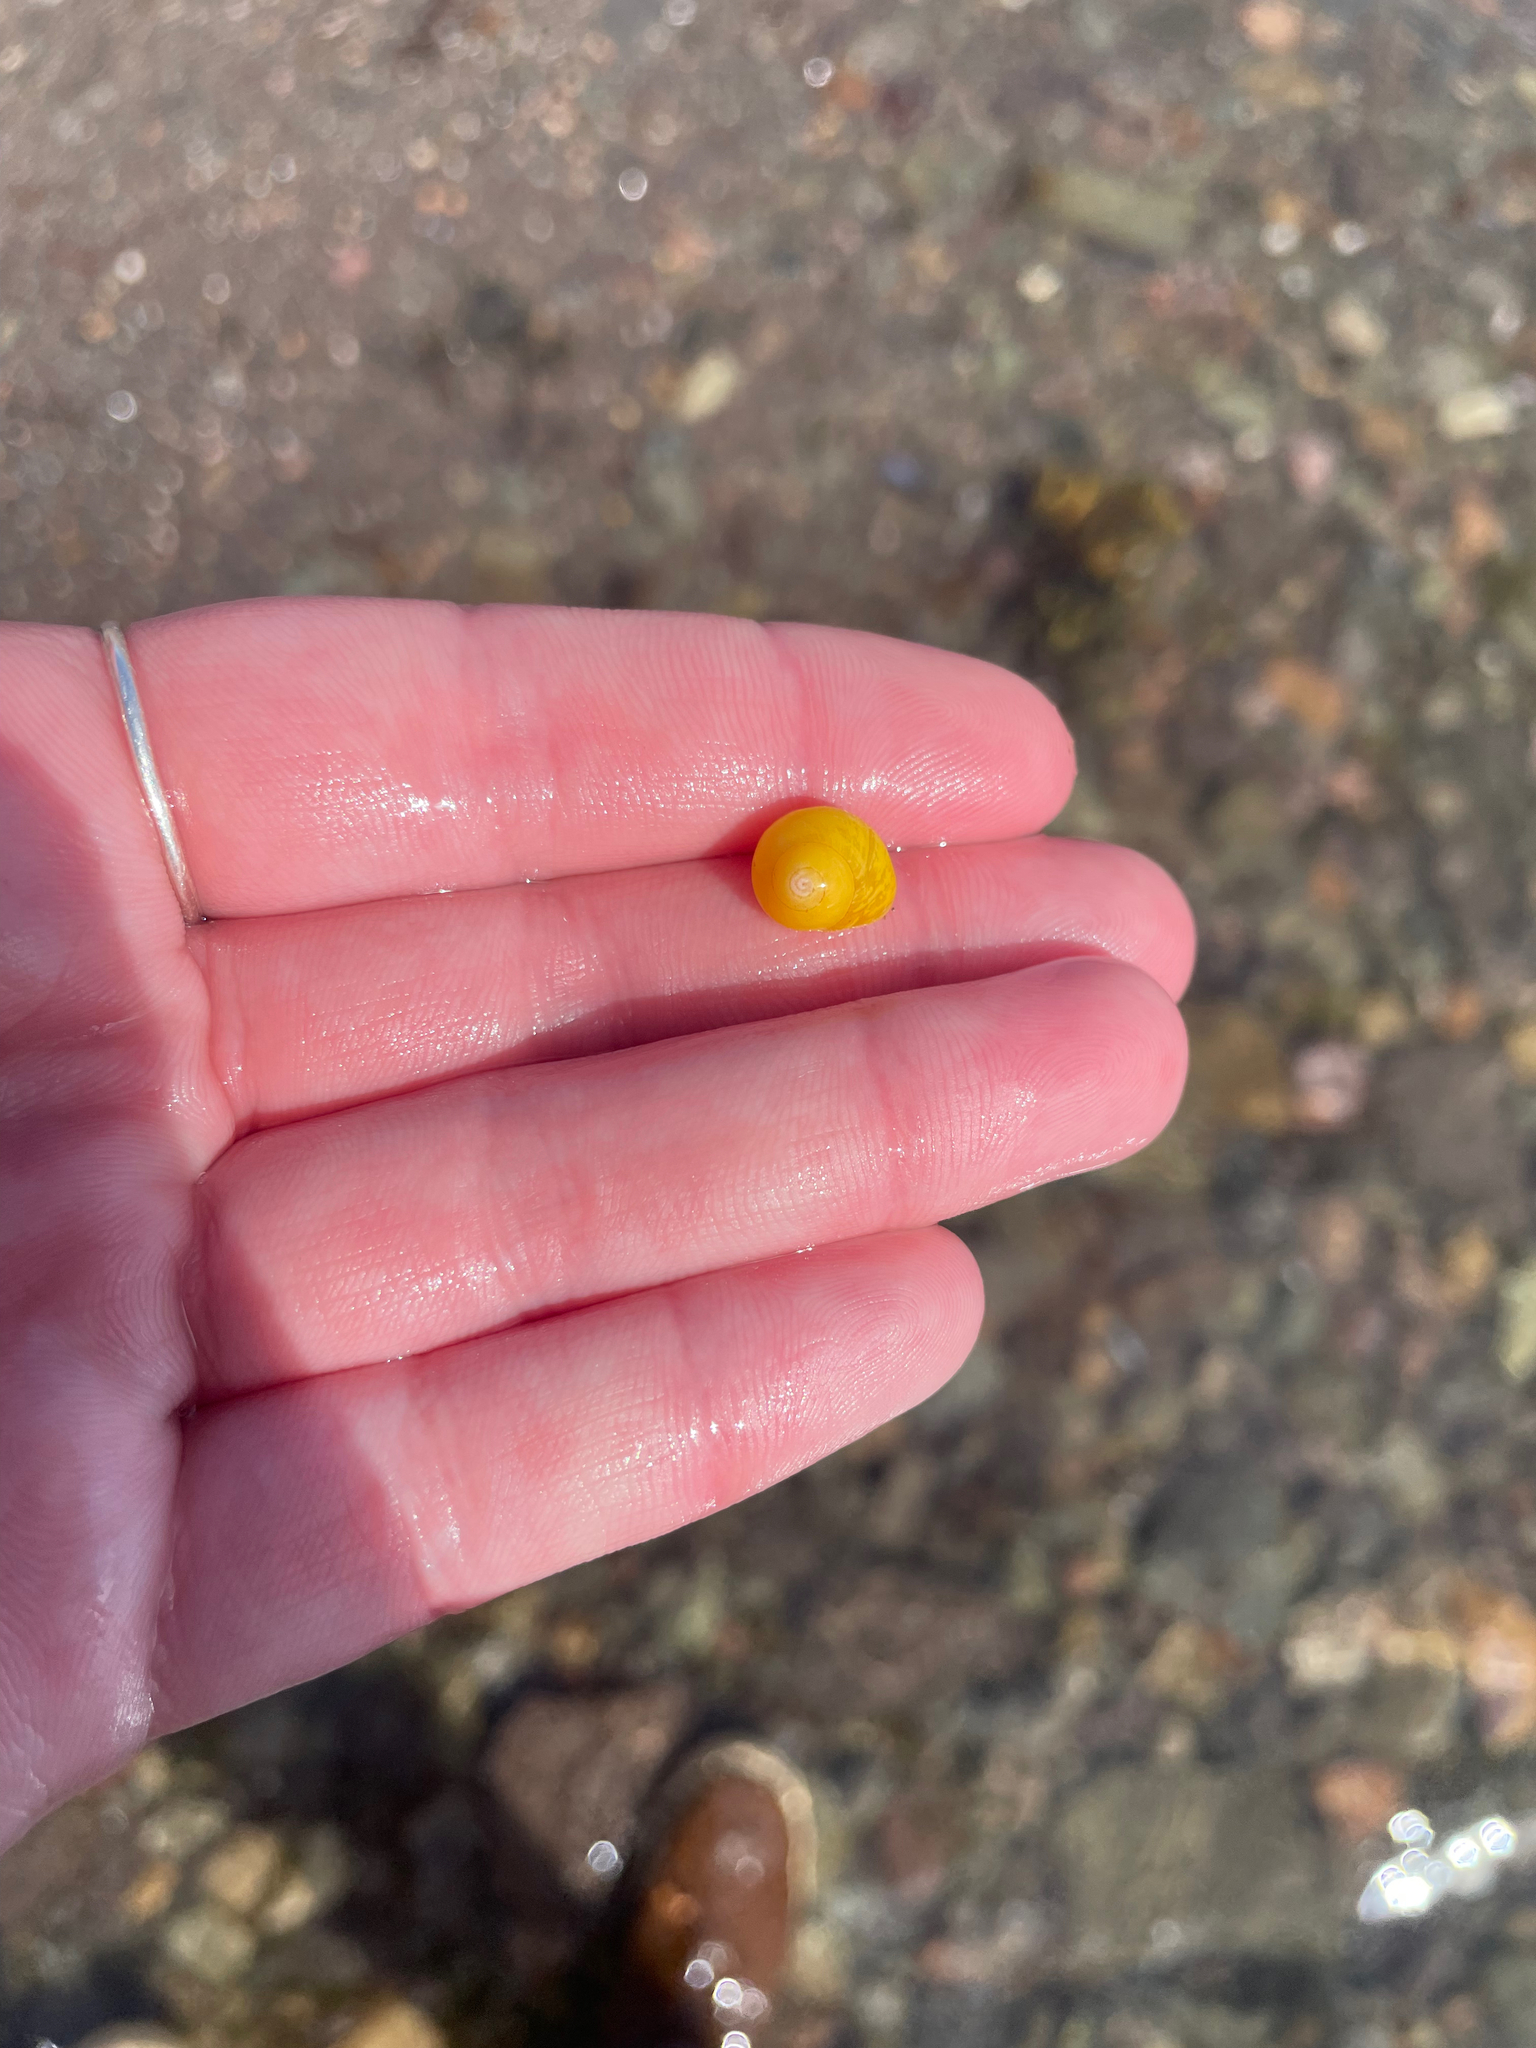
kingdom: Animalia
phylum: Mollusca
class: Gastropoda
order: Littorinimorpha
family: Littorinidae
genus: Littorina
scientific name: Littorina obtusata
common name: Flat periwinkle
